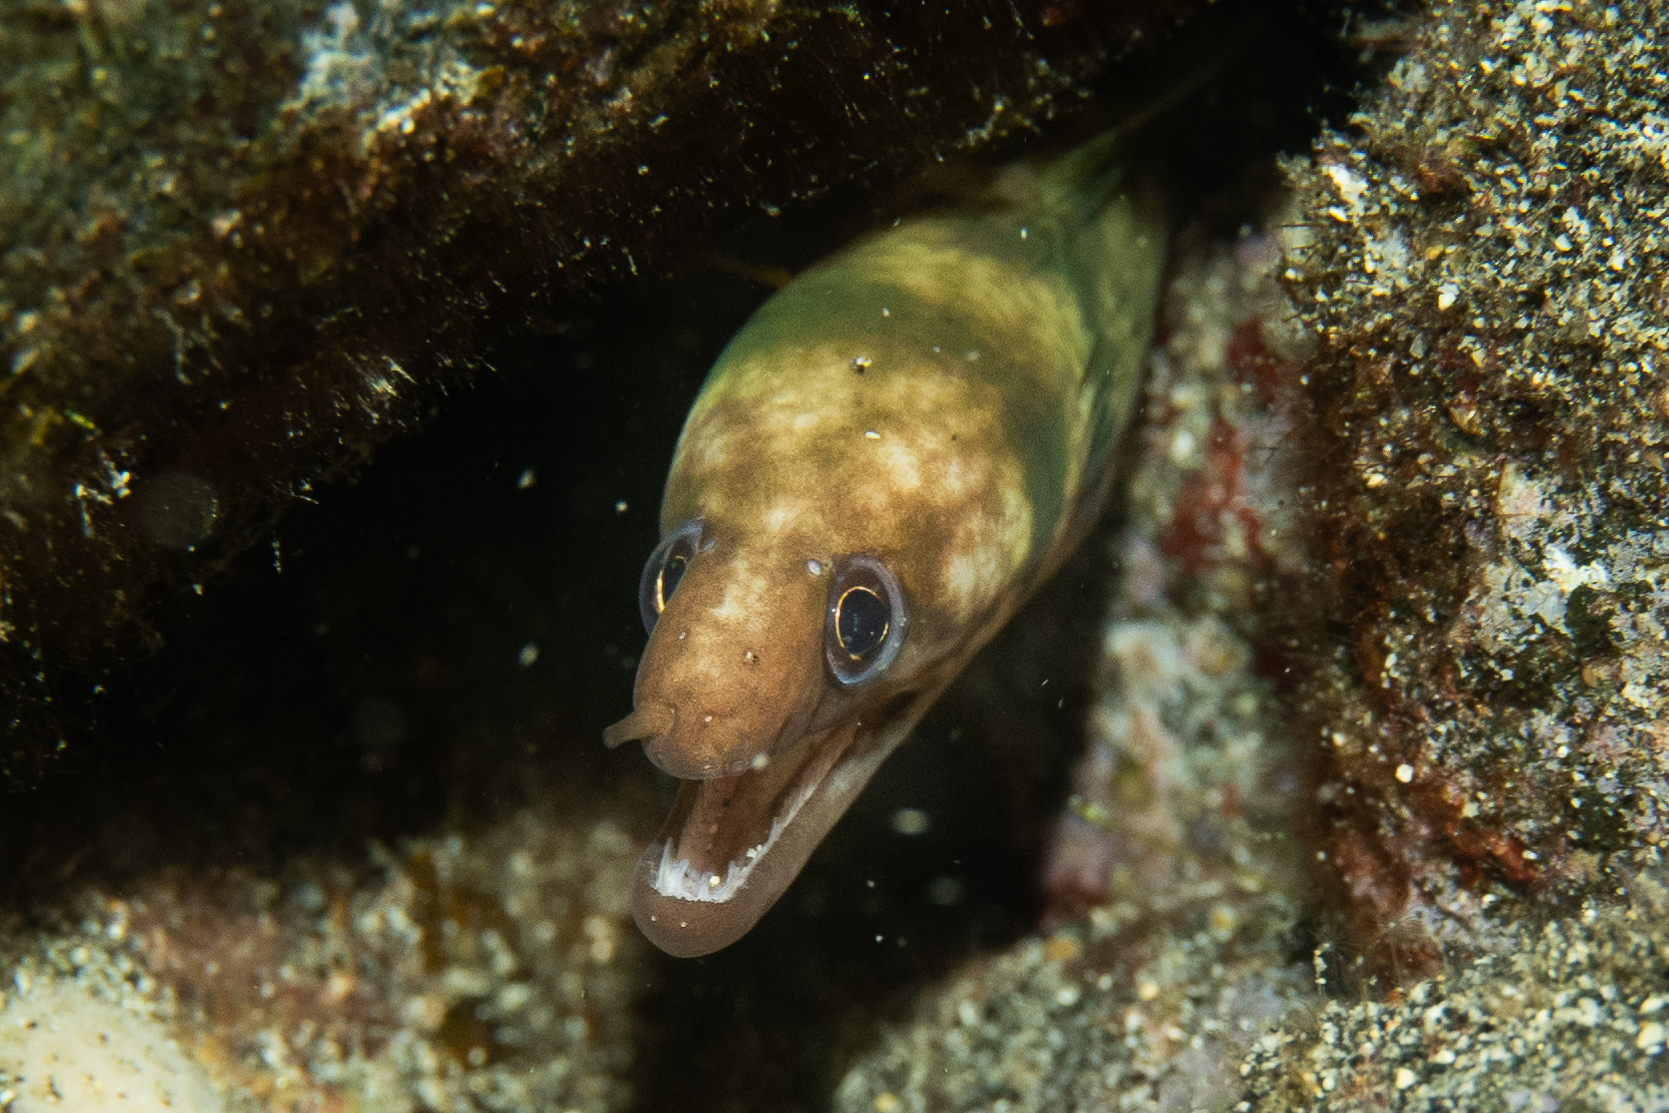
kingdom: Animalia
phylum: Chordata
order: Anguilliformes
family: Muraenidae
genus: Gymnothorax
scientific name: Gymnothorax gracilicauda
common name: Graceful-tailed moray
